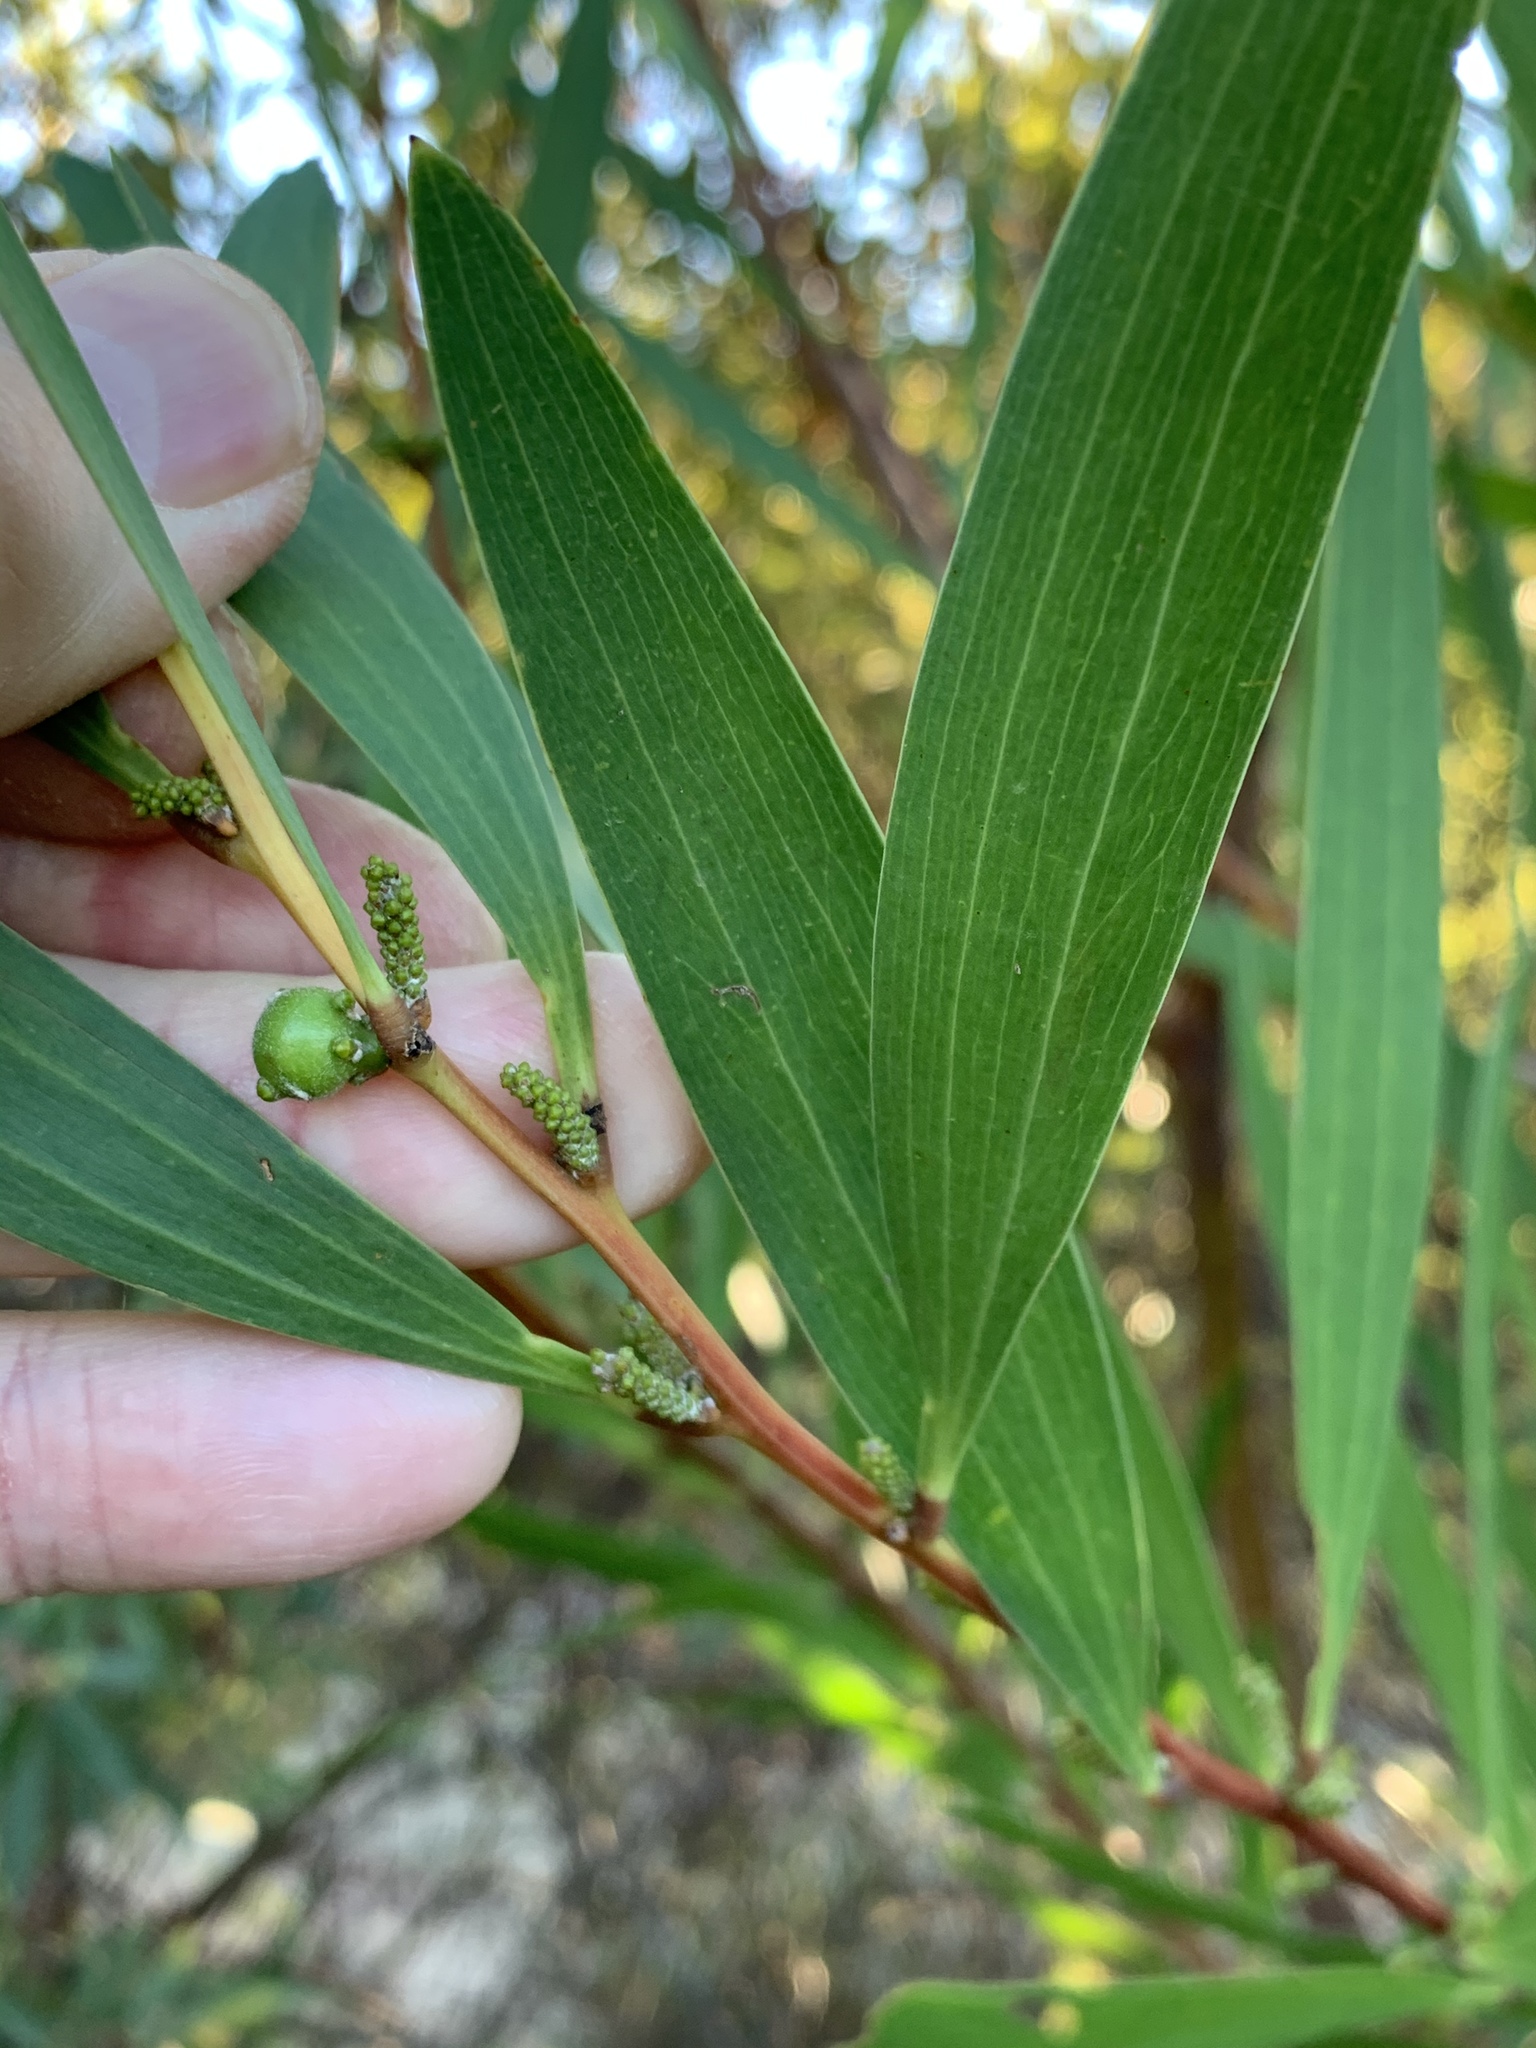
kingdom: Plantae
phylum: Tracheophyta
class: Magnoliopsida
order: Fabales
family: Fabaceae
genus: Acacia
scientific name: Acacia longifolia
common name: Sydney golden wattle
